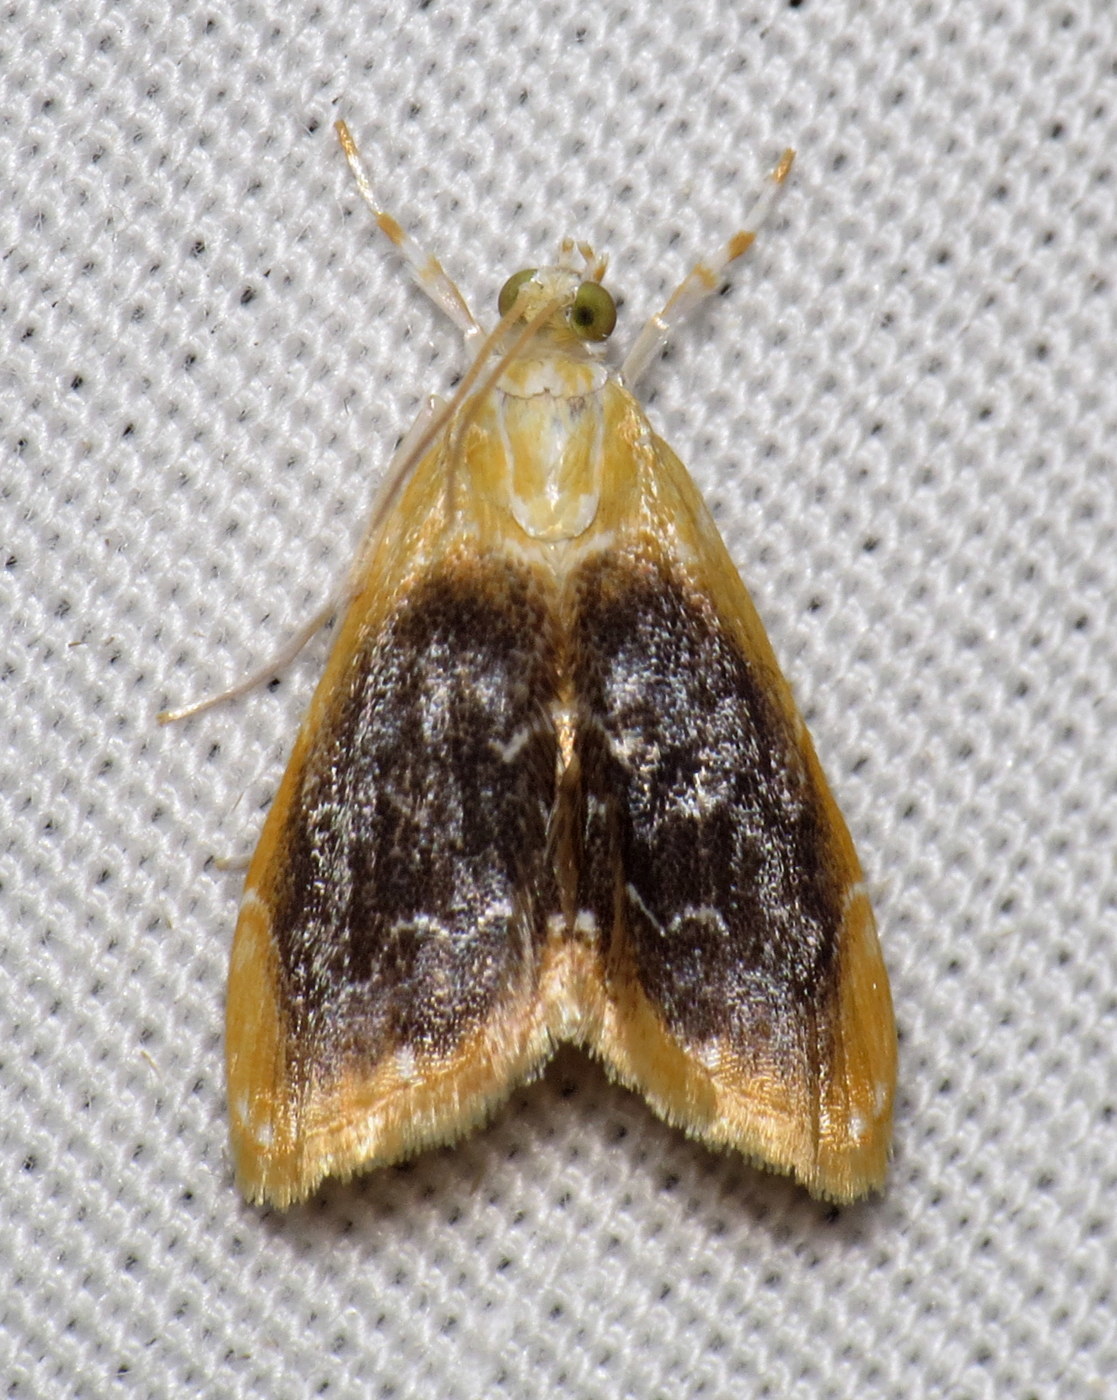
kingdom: Animalia
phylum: Arthropoda
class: Insecta
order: Lepidoptera
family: Crambidae
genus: Glaphyria
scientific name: Glaphyria fulminalis
